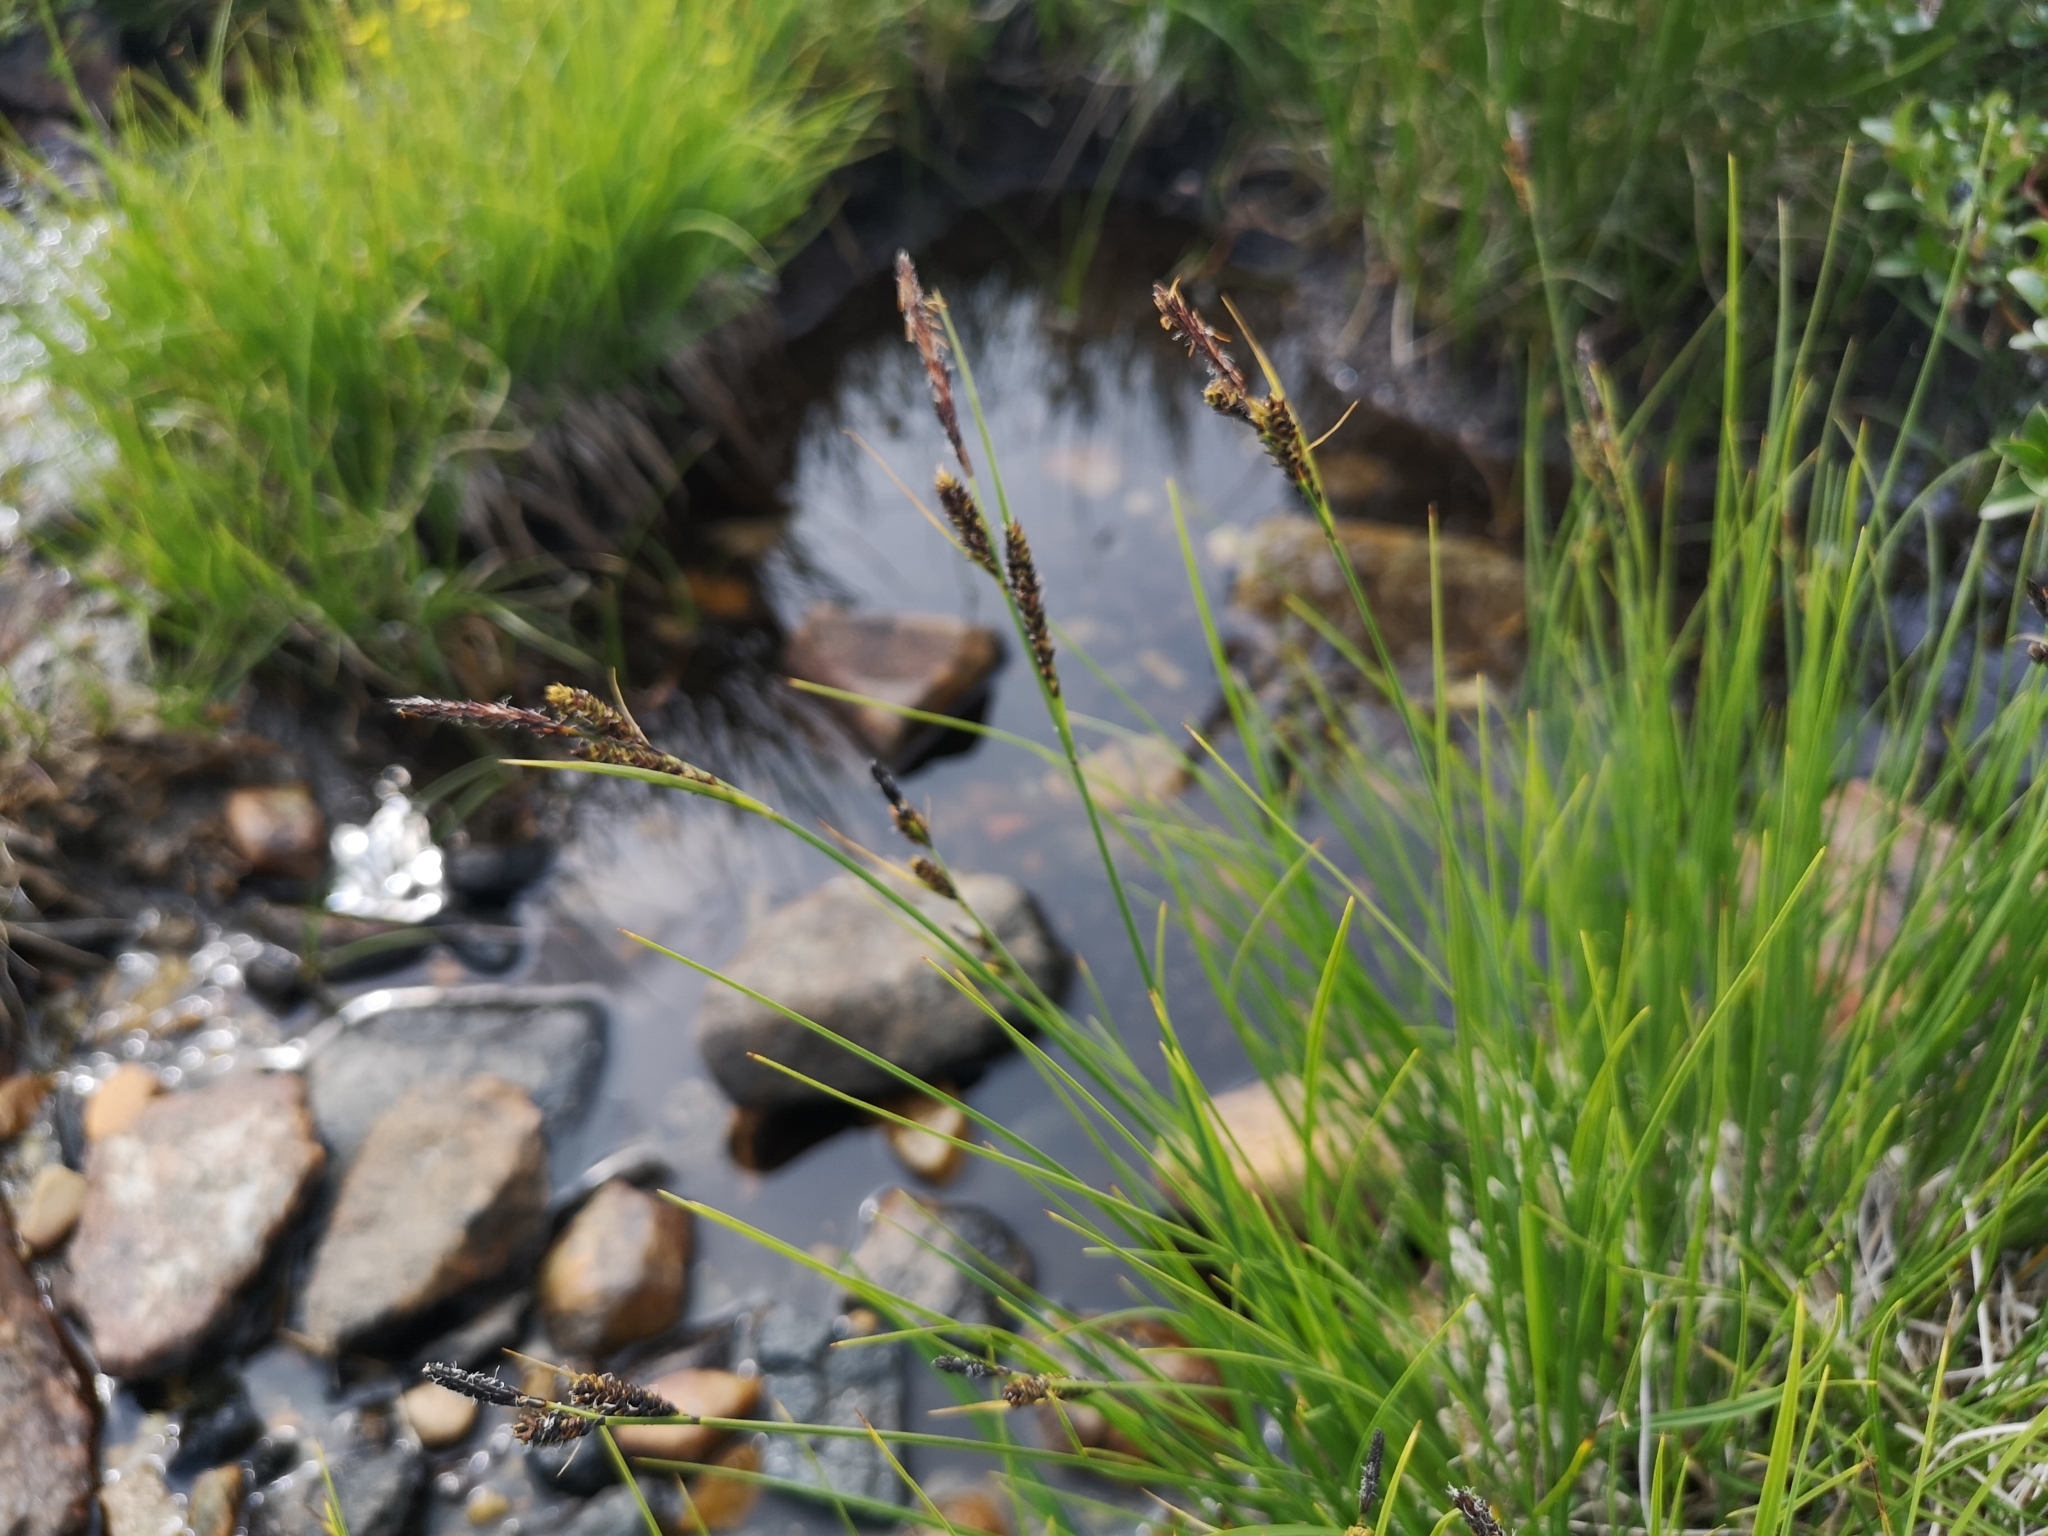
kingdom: Plantae
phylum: Tracheophyta
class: Liliopsida
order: Poales
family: Cyperaceae
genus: Carex
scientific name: Carex nigra
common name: Common sedge
